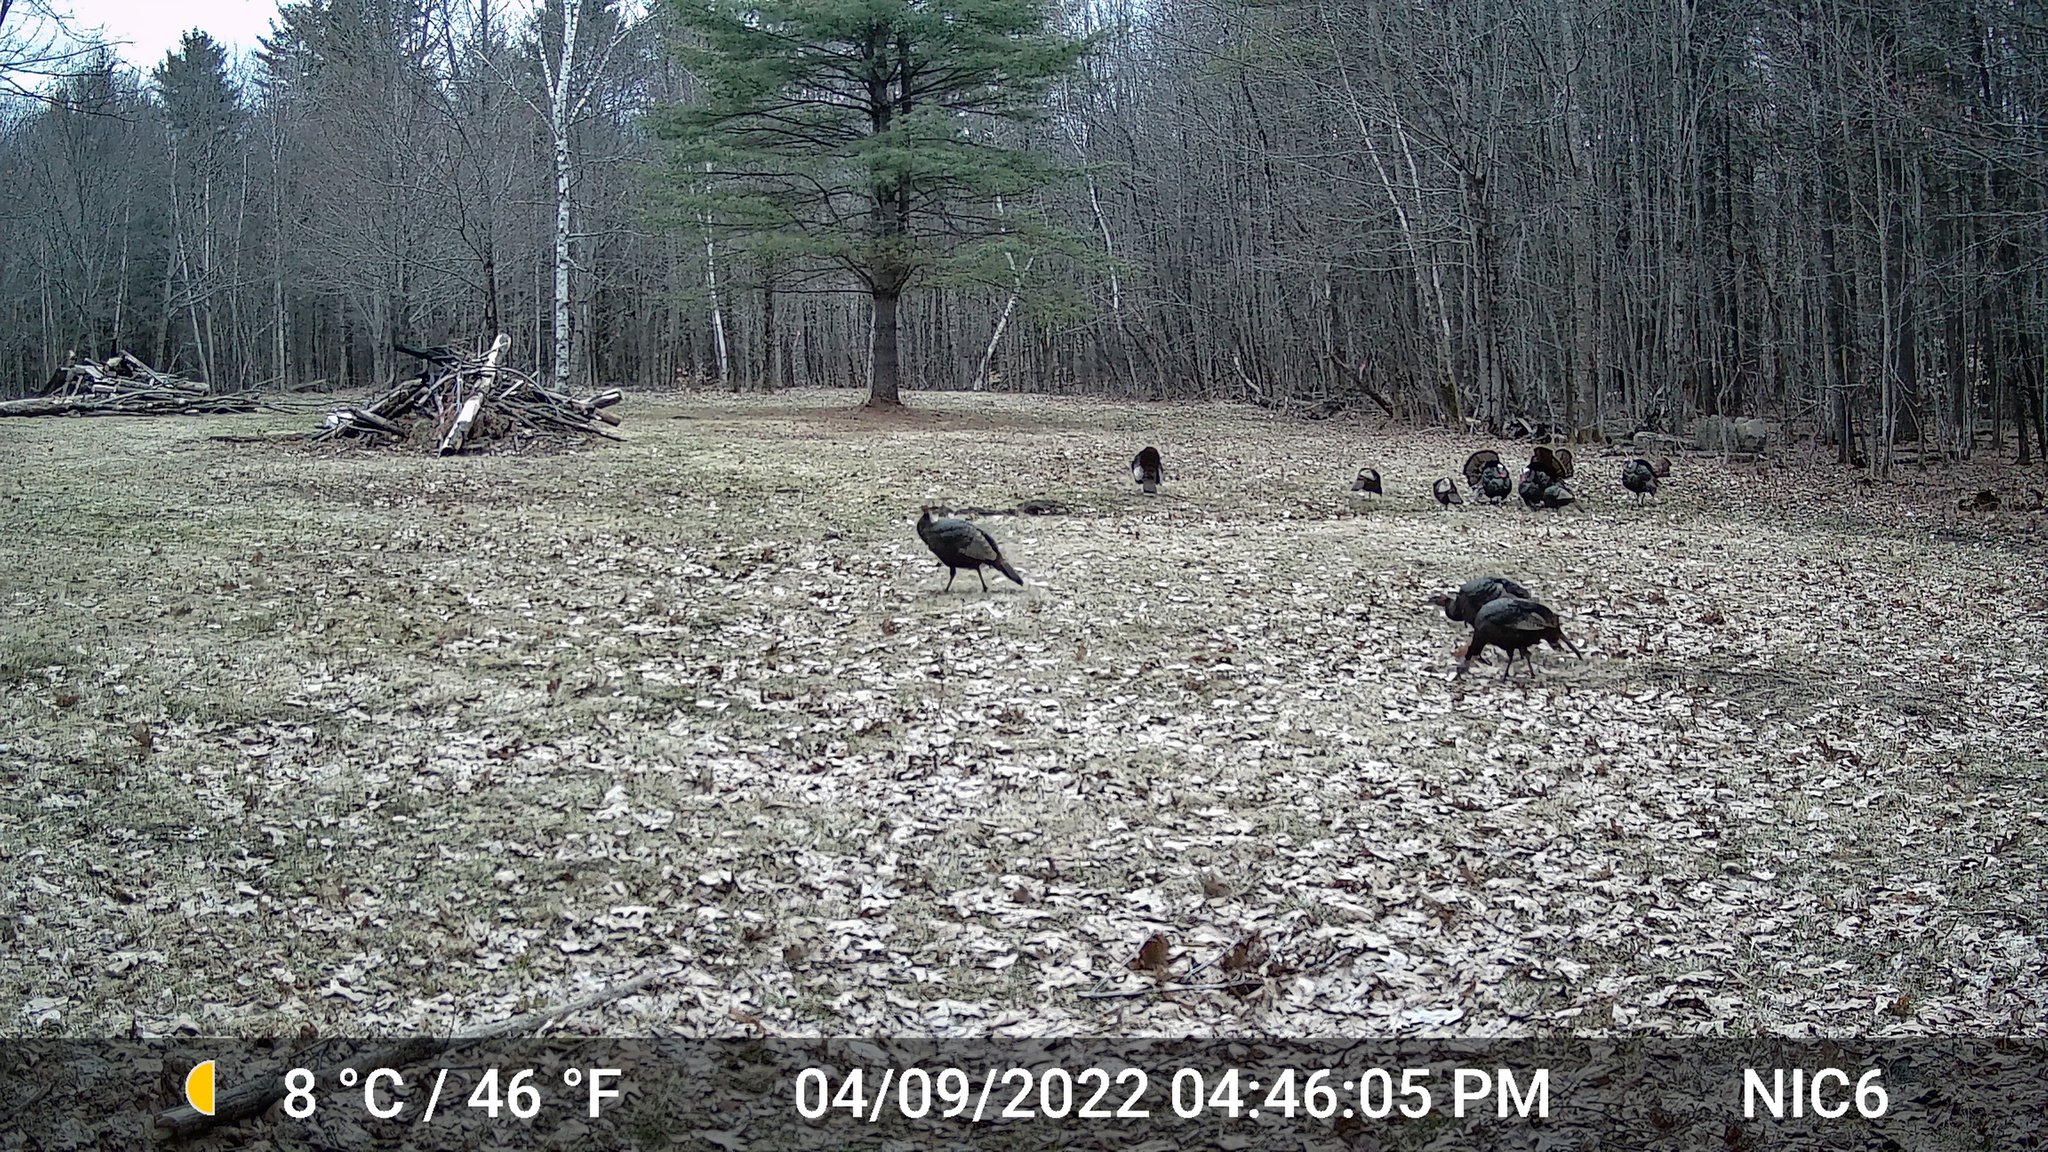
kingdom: Animalia
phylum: Chordata
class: Aves
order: Galliformes
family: Phasianidae
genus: Meleagris
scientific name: Meleagris gallopavo
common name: Wild turkey
